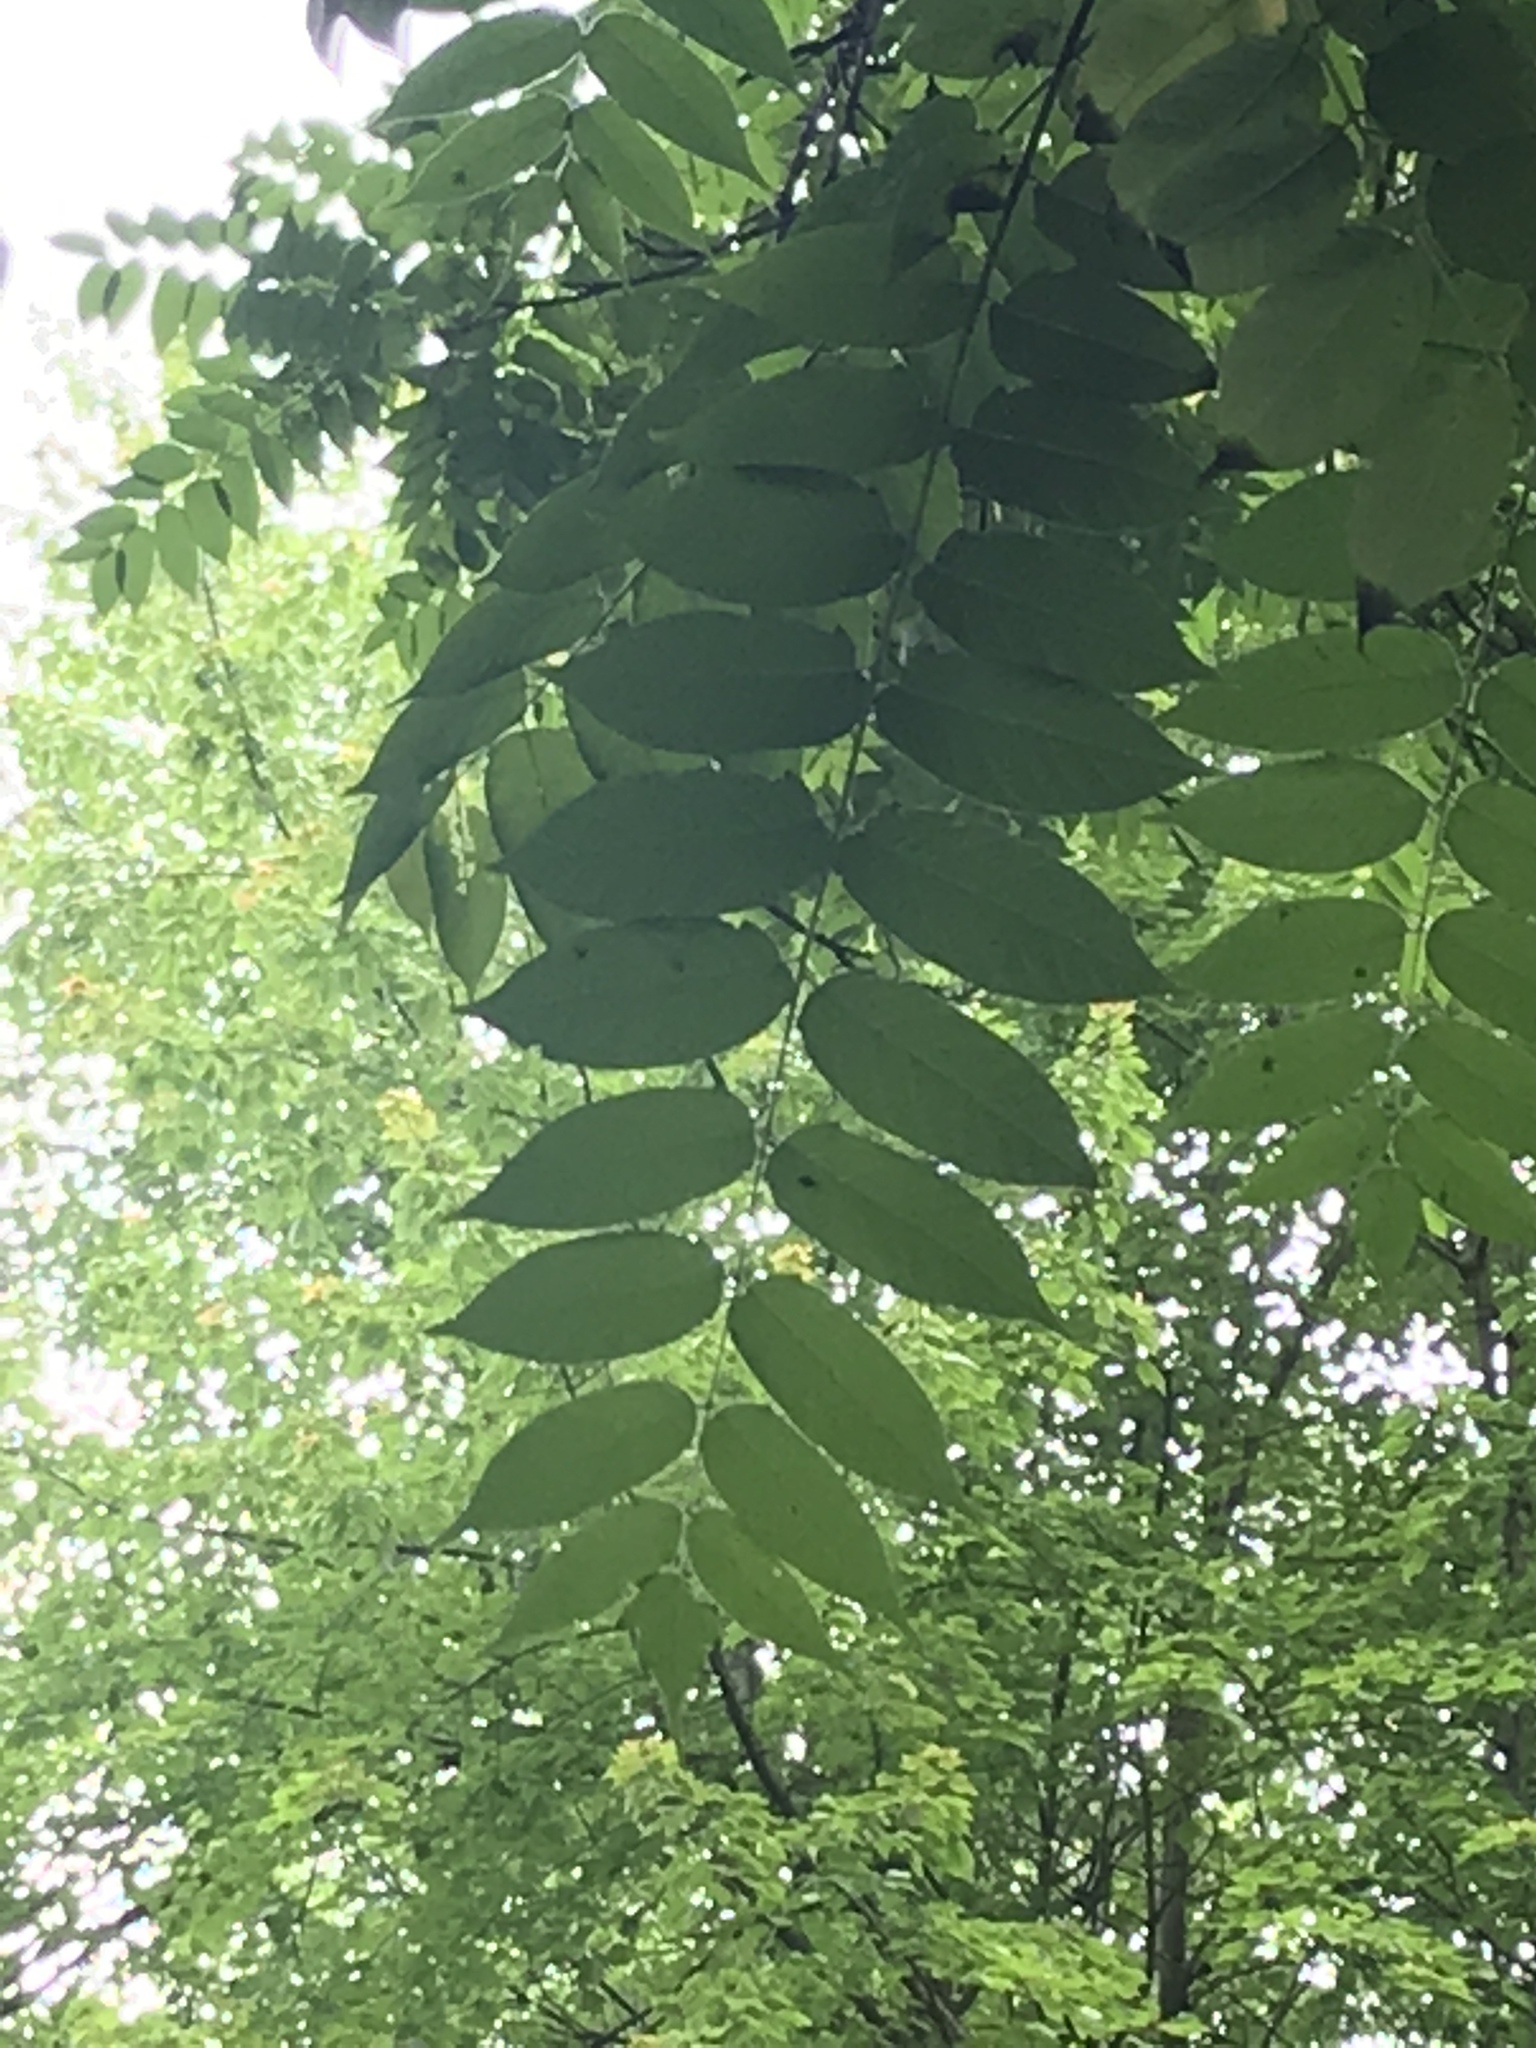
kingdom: Plantae
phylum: Tracheophyta
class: Magnoliopsida
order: Sapindales
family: Simaroubaceae
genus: Ailanthus
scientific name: Ailanthus altissima
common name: Tree-of-heaven
